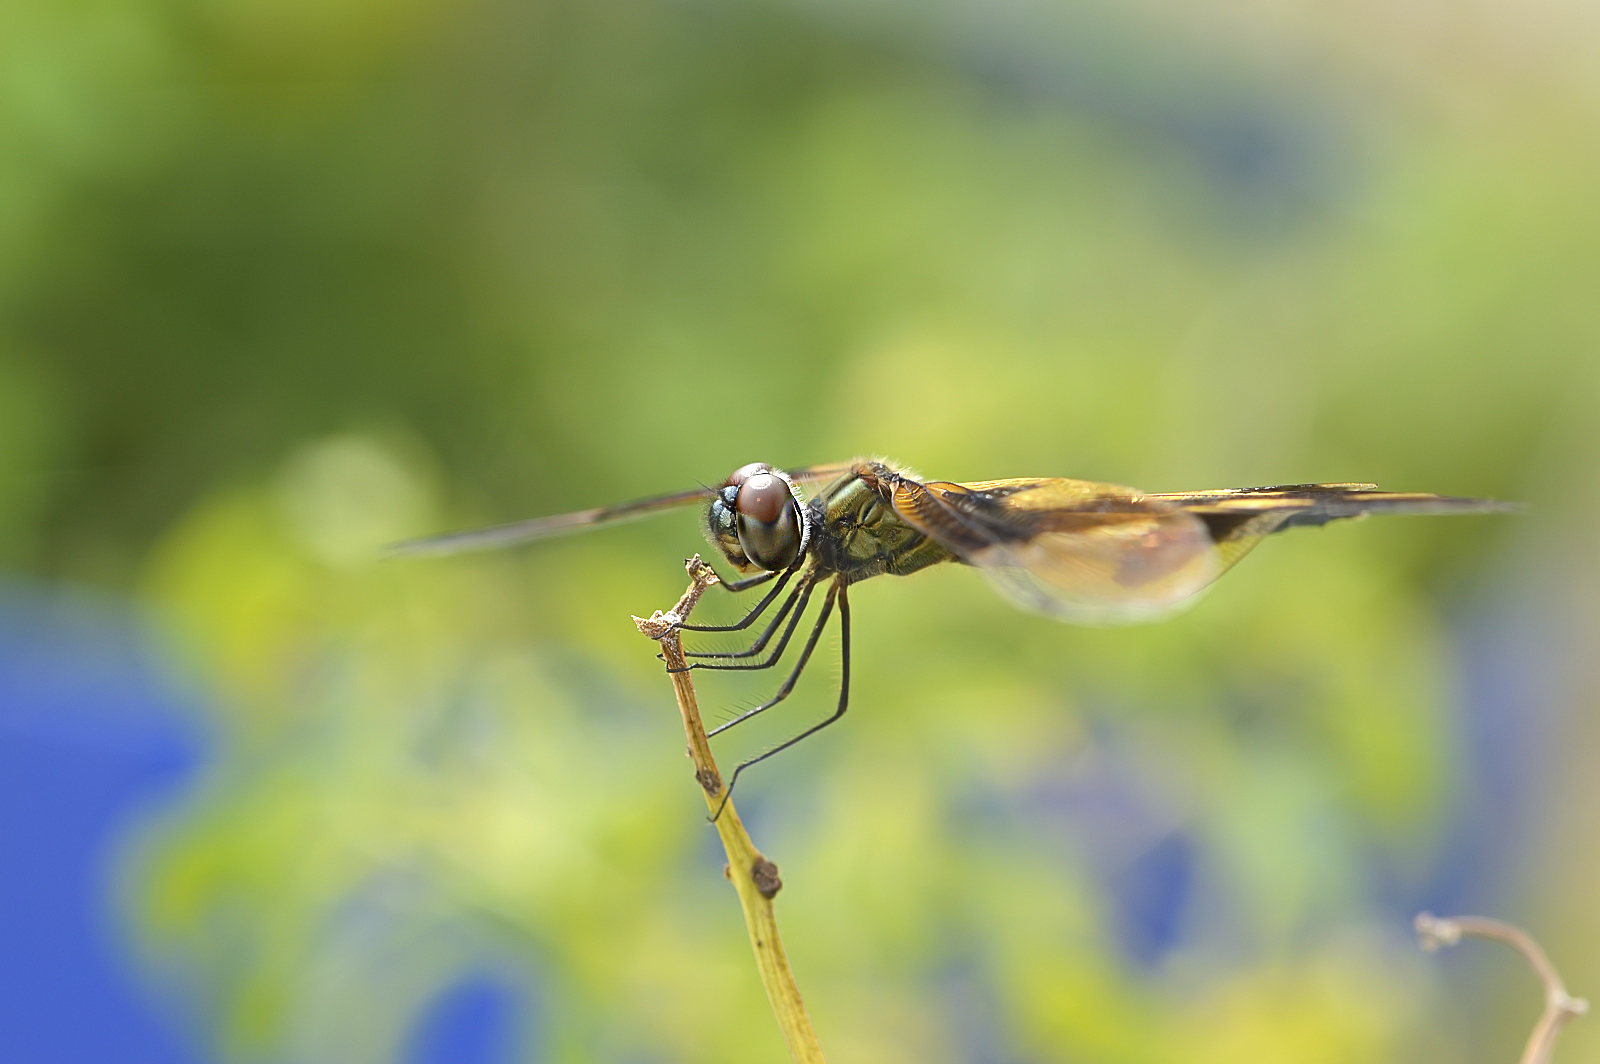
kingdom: Animalia
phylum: Arthropoda
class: Insecta
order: Odonata
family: Libellulidae
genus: Rhyothemis
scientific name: Rhyothemis variegata
